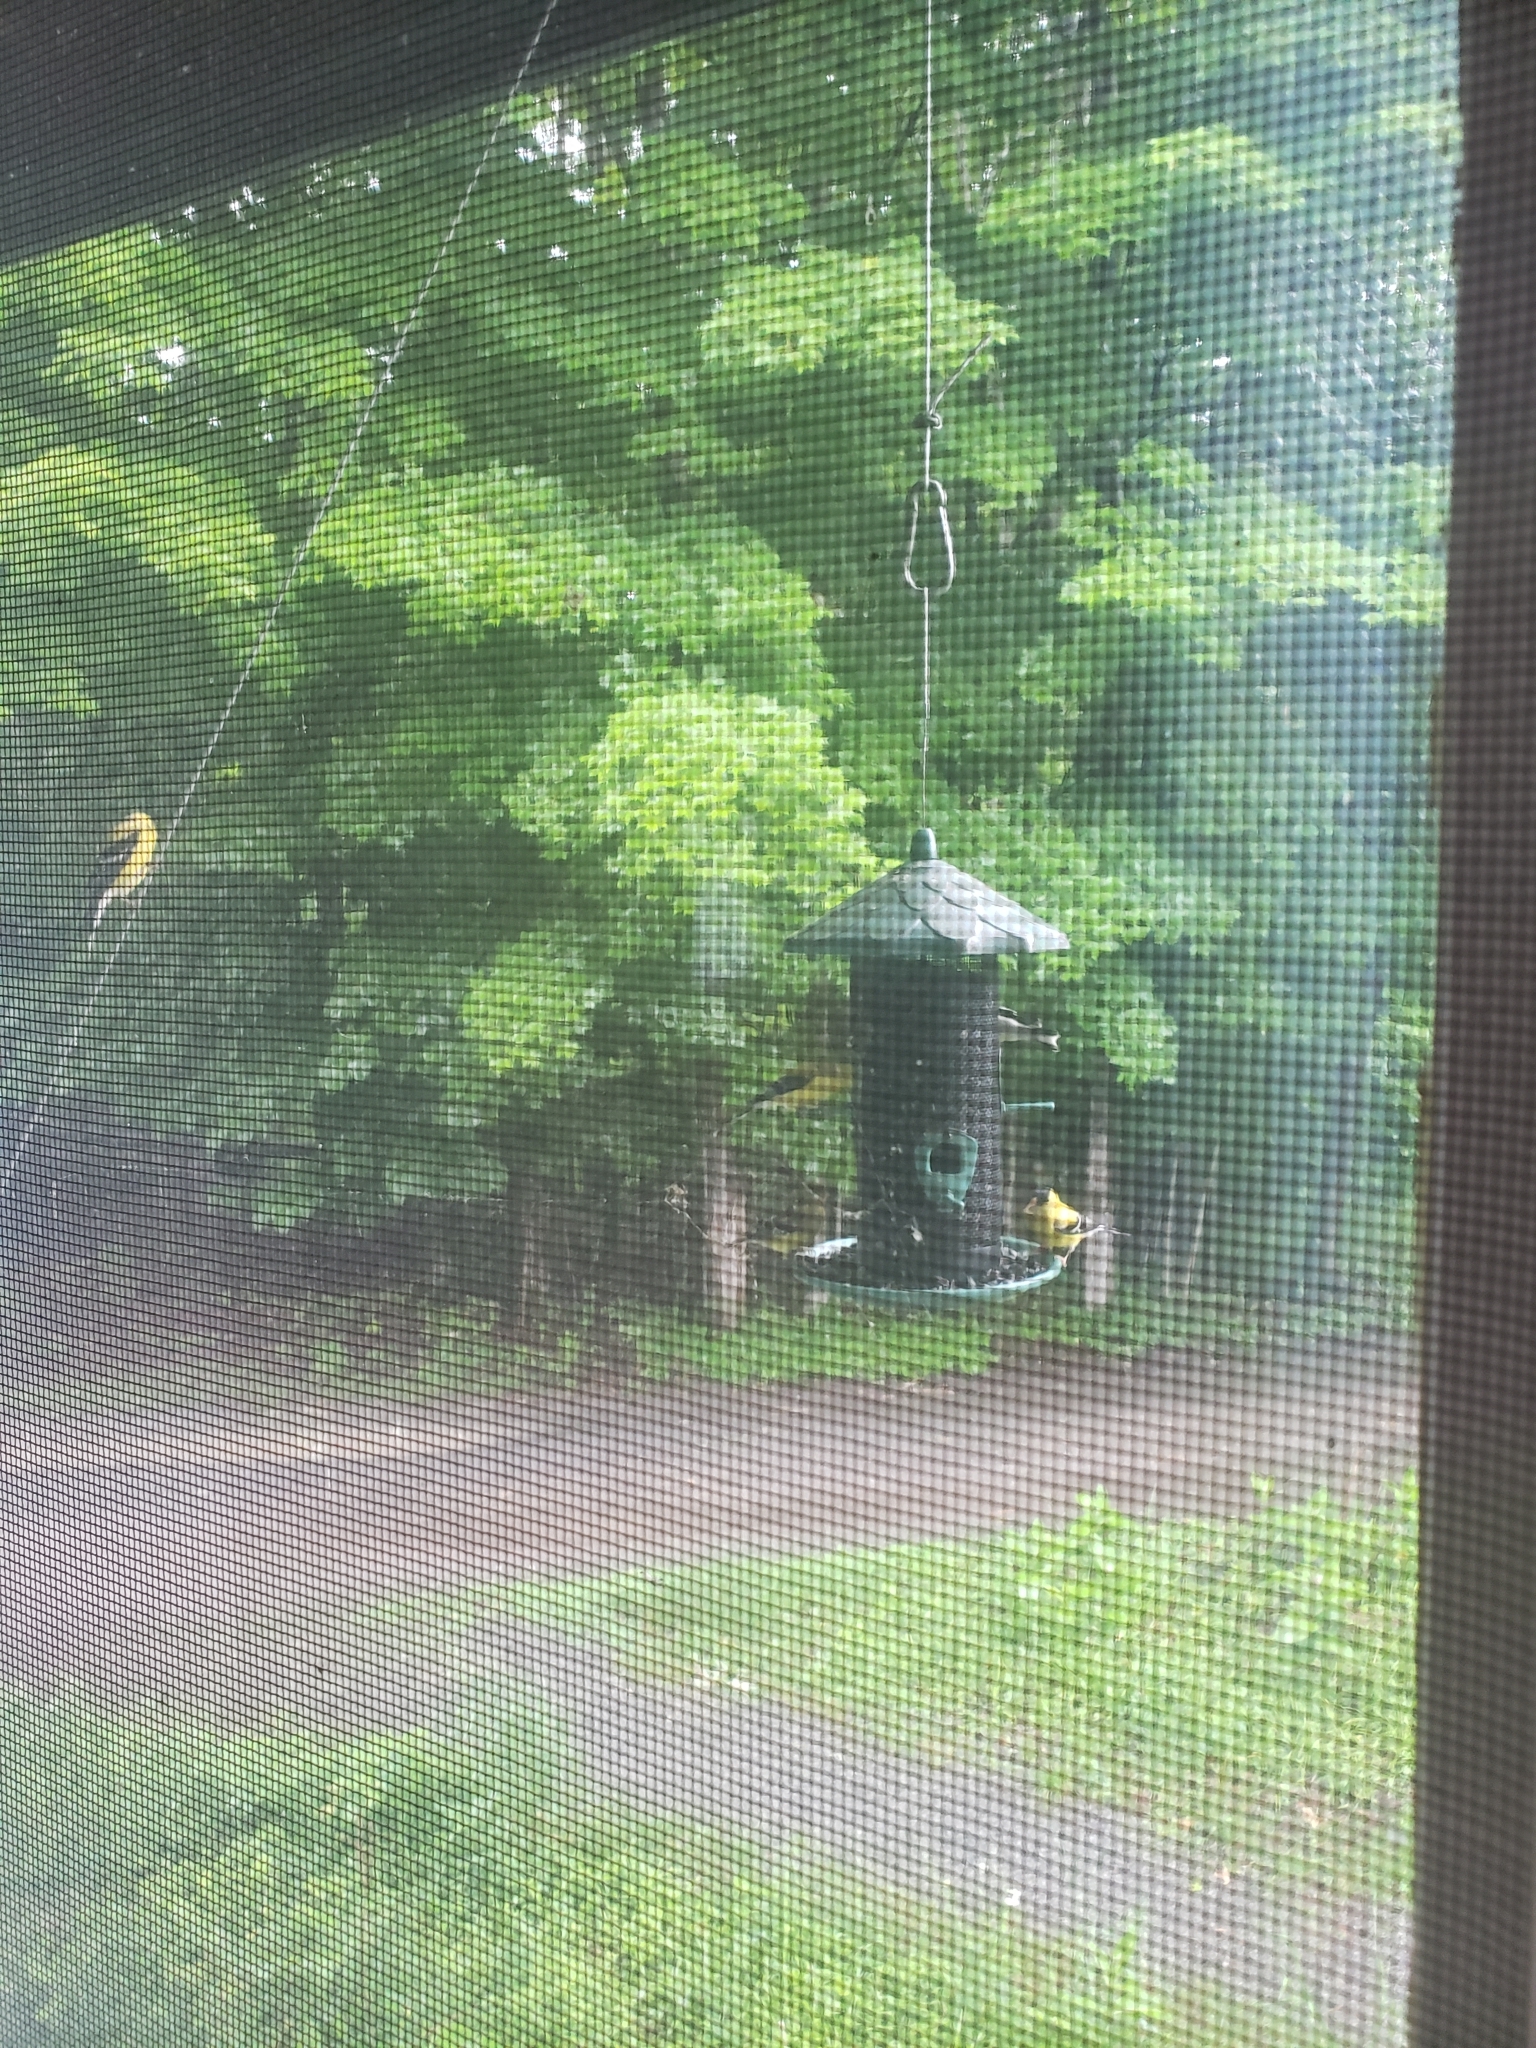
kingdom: Animalia
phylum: Chordata
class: Aves
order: Passeriformes
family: Fringillidae
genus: Spinus
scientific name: Spinus tristis
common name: American goldfinch
